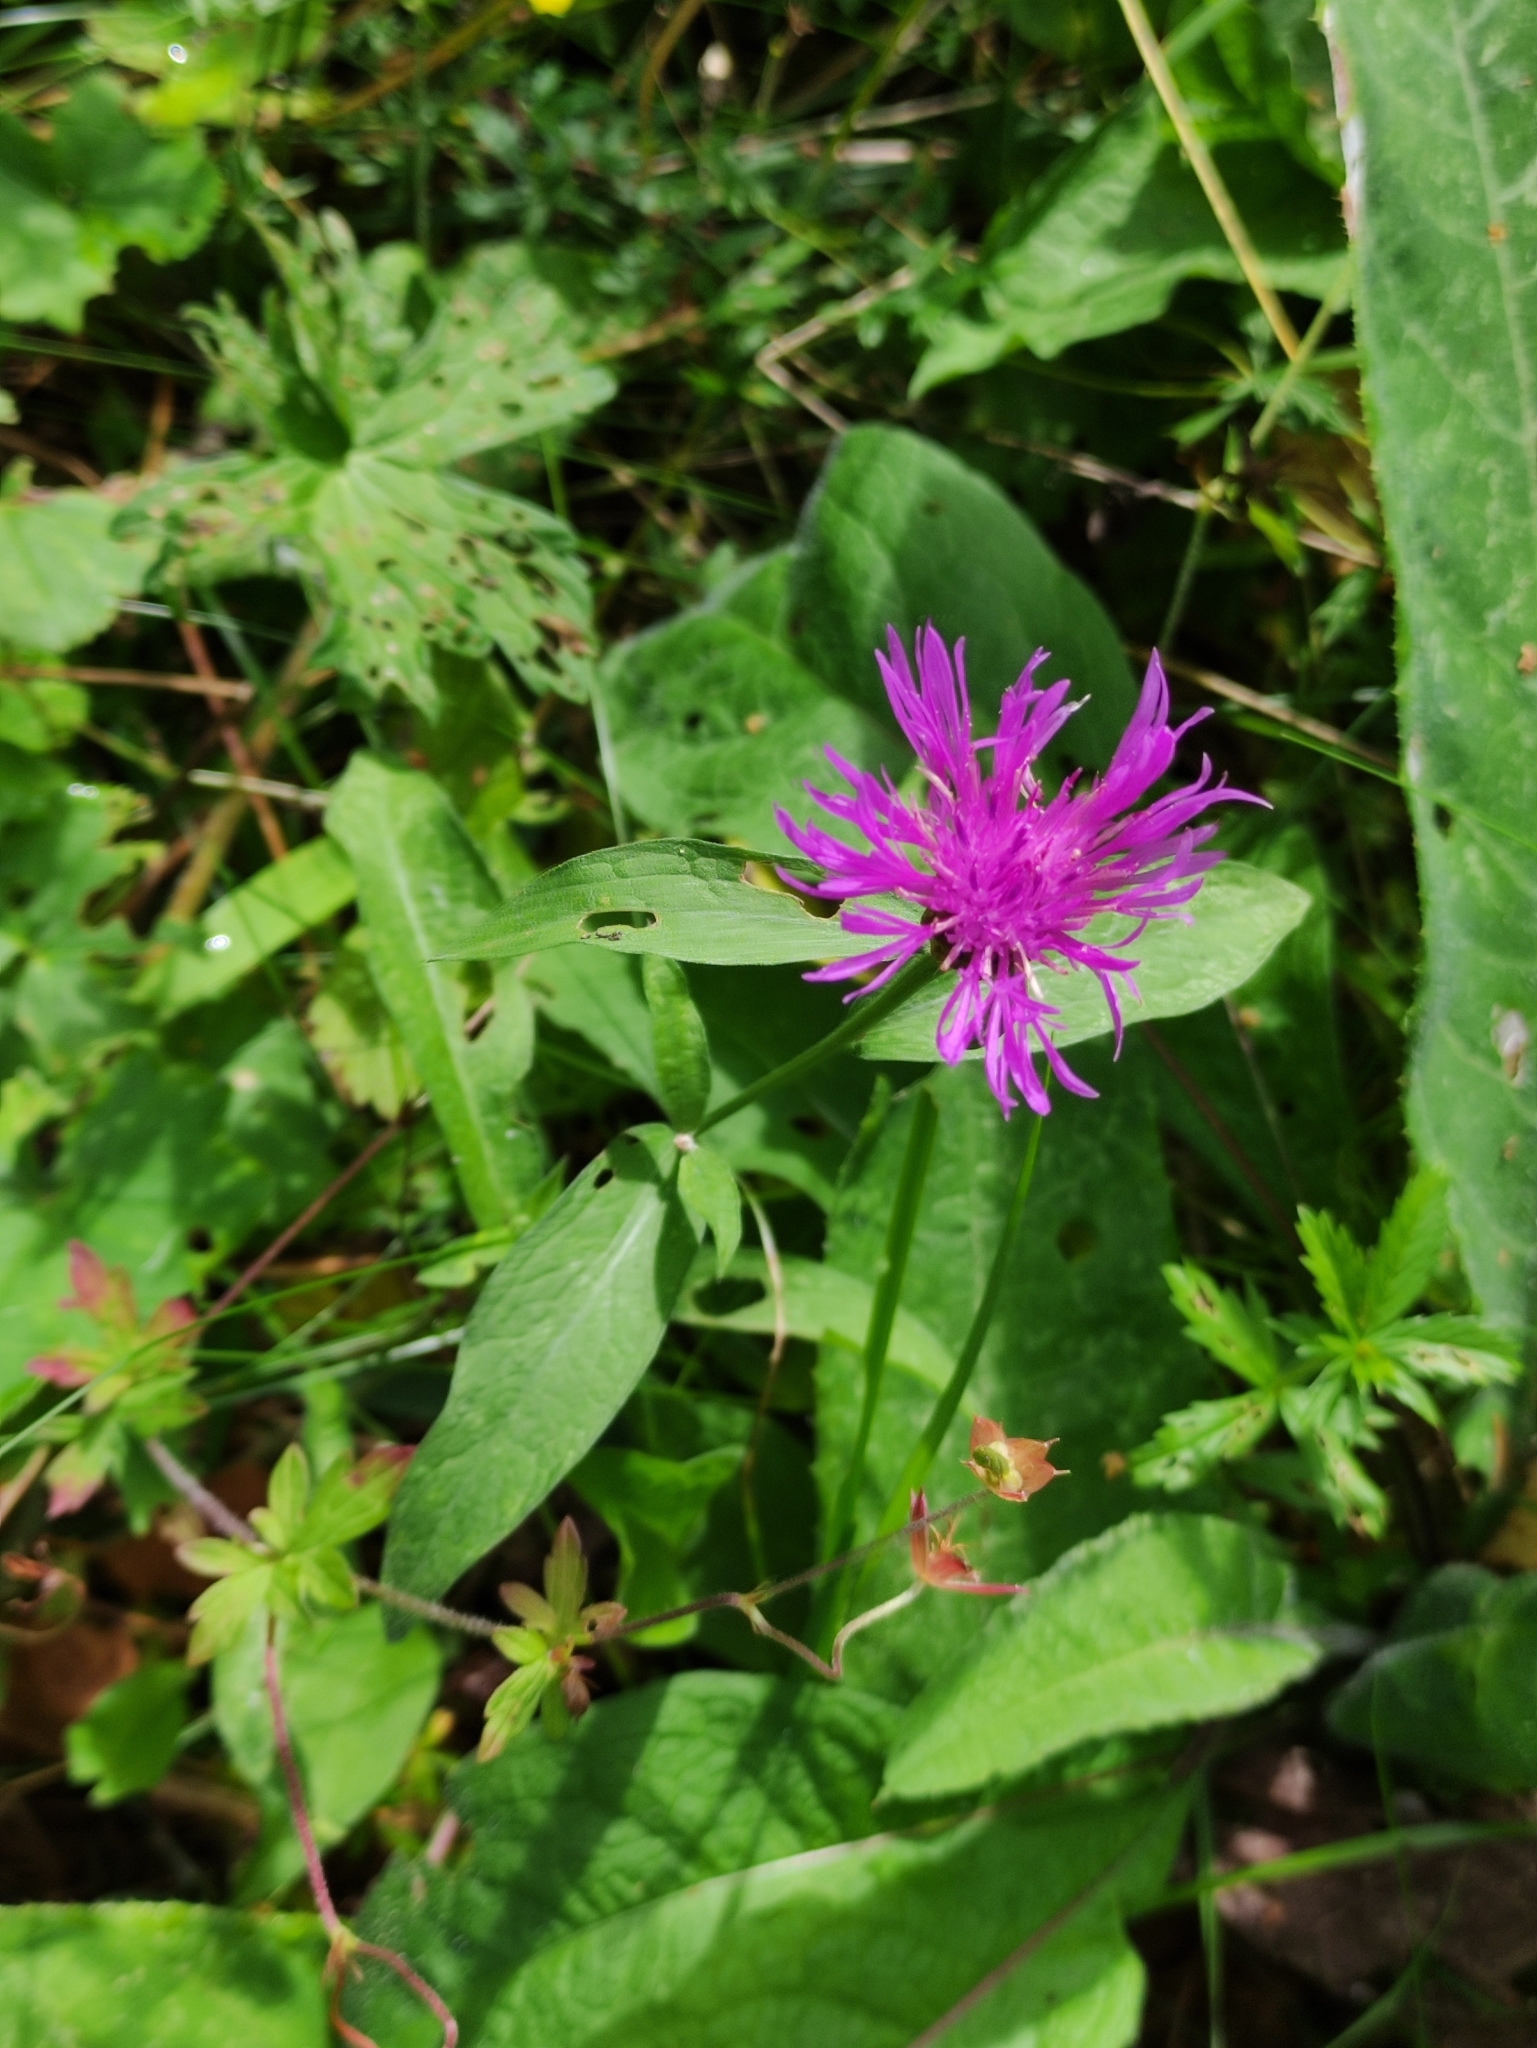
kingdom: Plantae
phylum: Tracheophyta
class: Magnoliopsida
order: Asterales
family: Asteraceae
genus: Centaurea
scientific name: Centaurea jacea
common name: Brown knapweed
